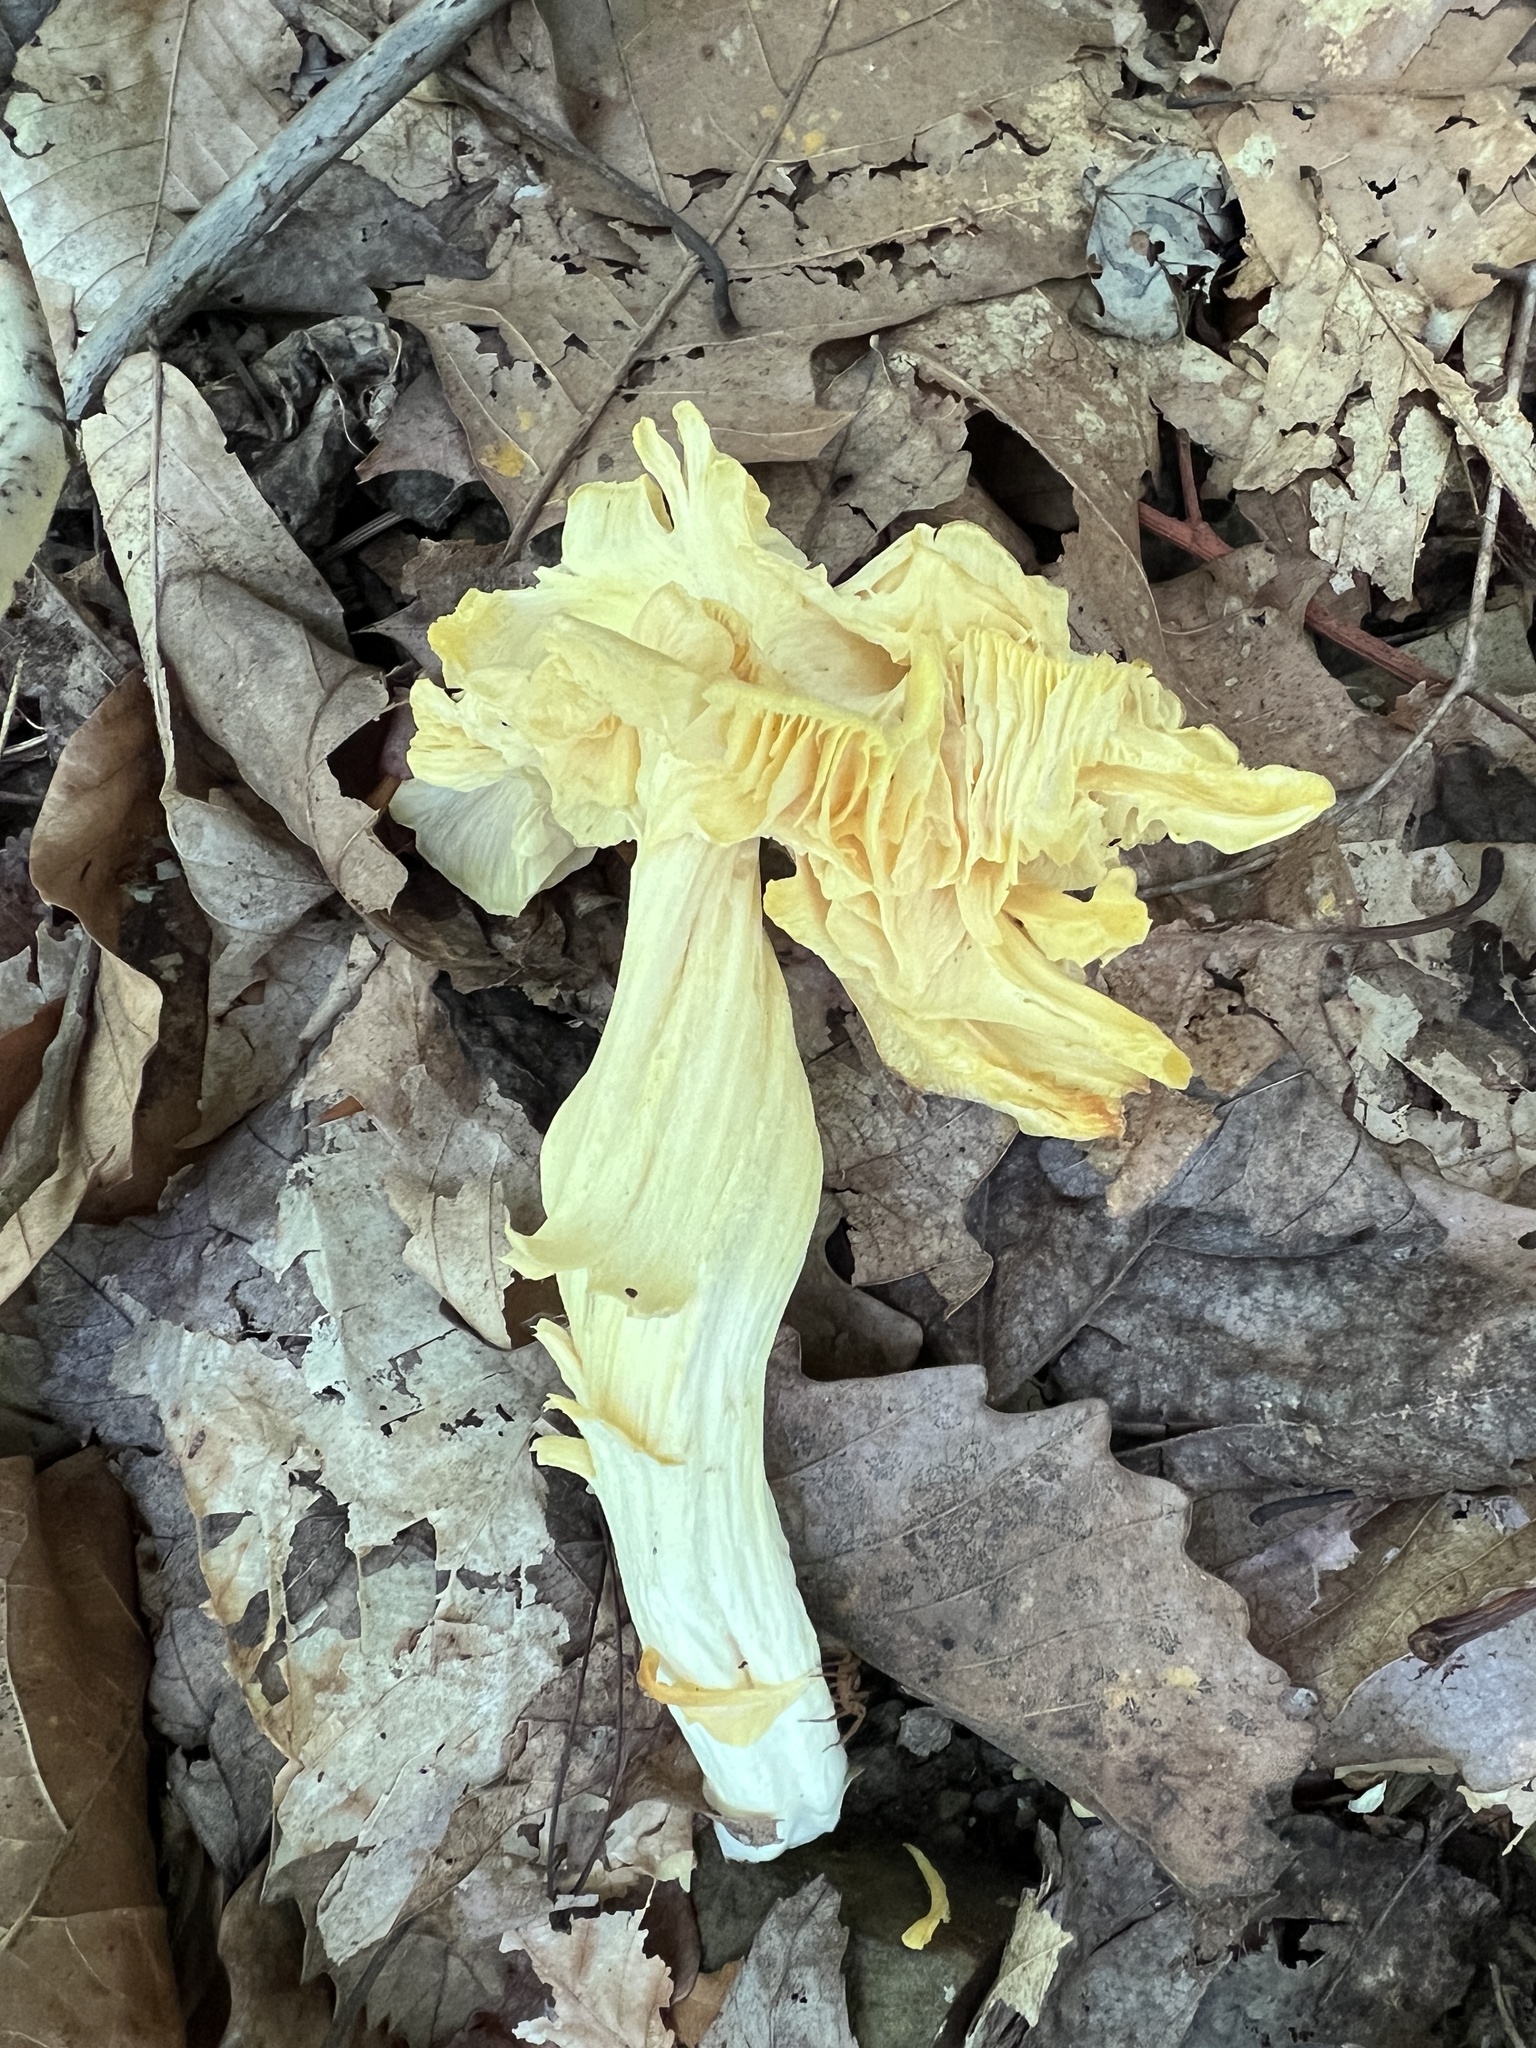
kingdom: Fungi
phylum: Basidiomycota
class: Agaricomycetes
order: Agaricales
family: Entolomataceae
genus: Entoloma
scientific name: Entoloma murrayi
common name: Yellow unicorn entoloma
